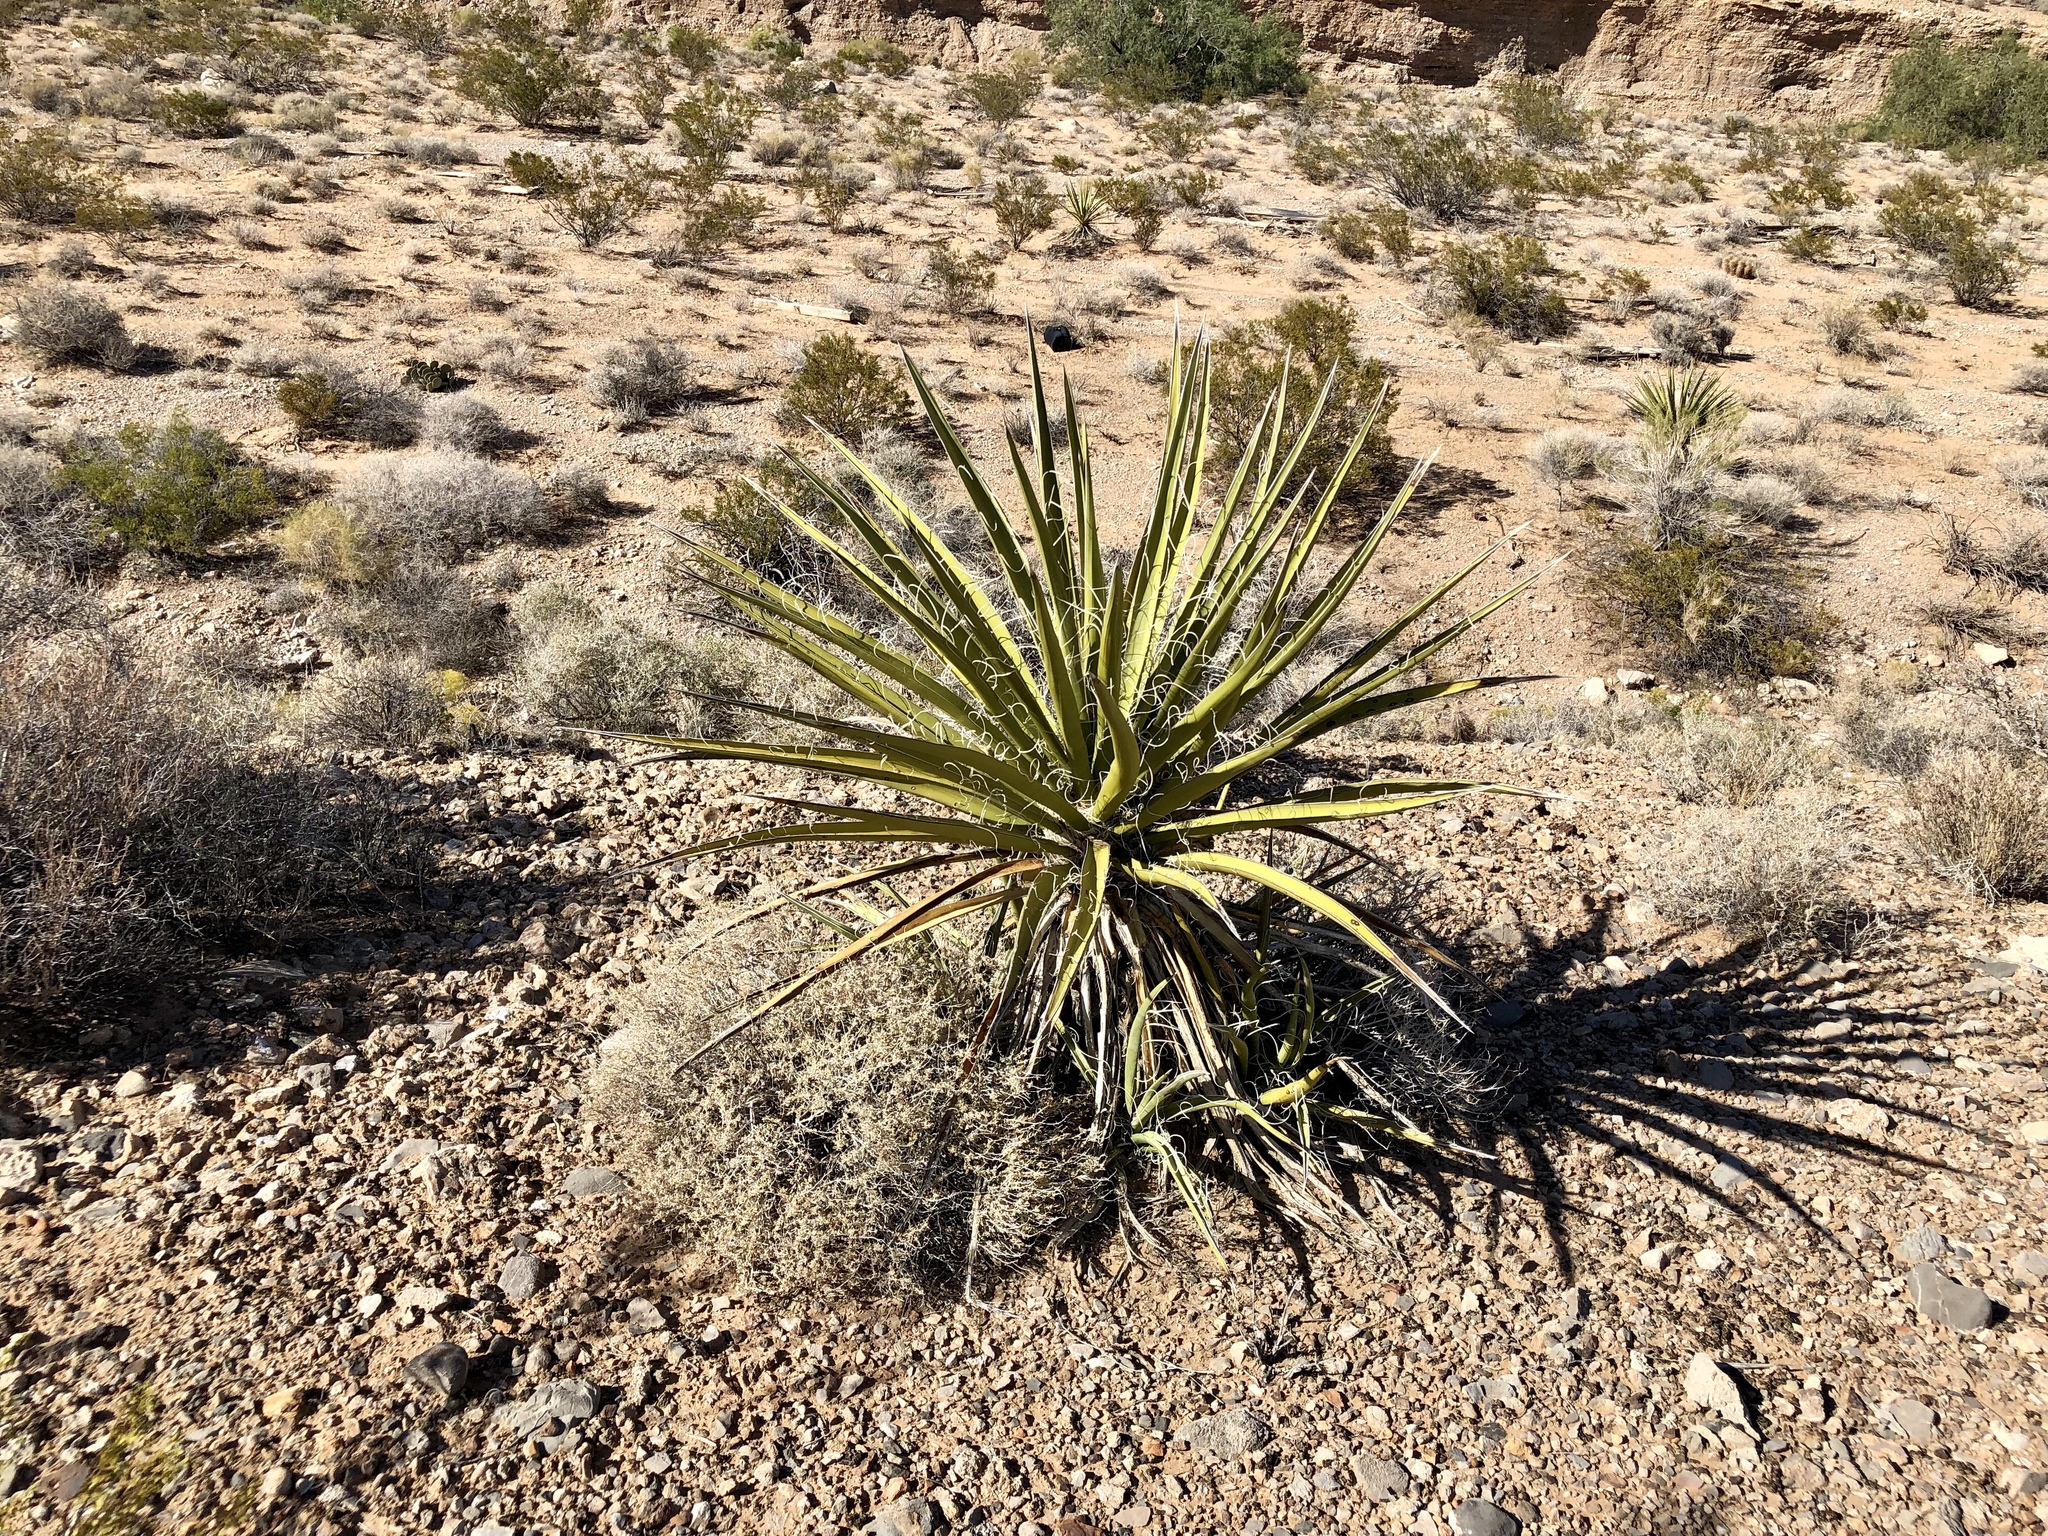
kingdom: Plantae
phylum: Tracheophyta
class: Liliopsida
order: Asparagales
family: Asparagaceae
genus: Yucca
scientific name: Yucca baccata
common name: Banana yucca
